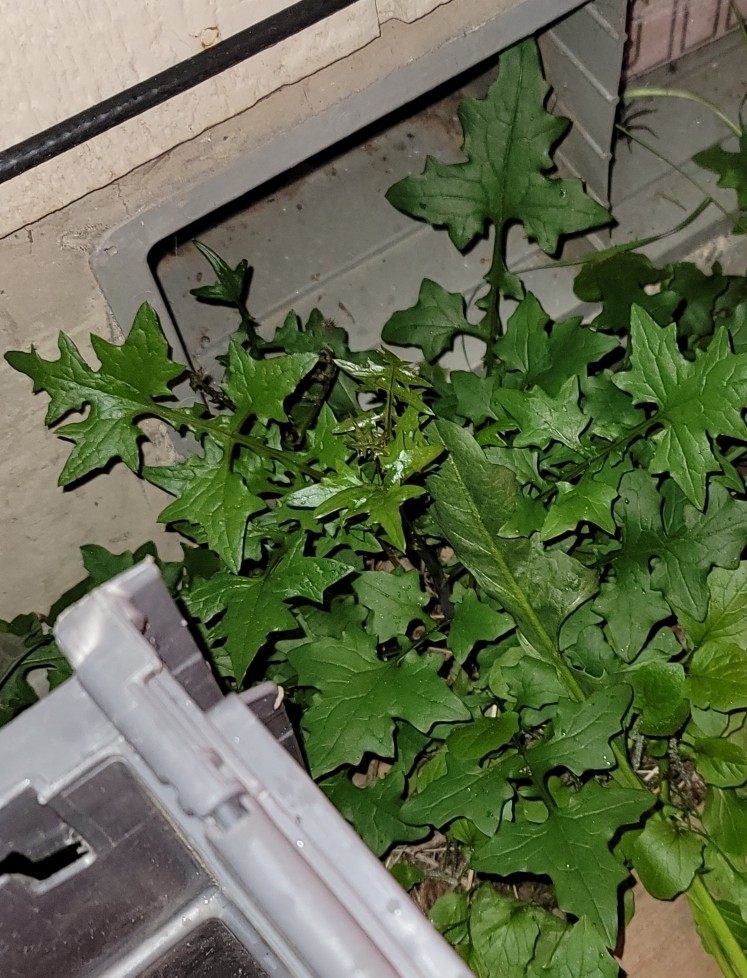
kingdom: Plantae
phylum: Tracheophyta
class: Magnoliopsida
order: Asterales
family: Asteraceae
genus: Mycelis
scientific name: Mycelis muralis
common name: Wall lettuce
